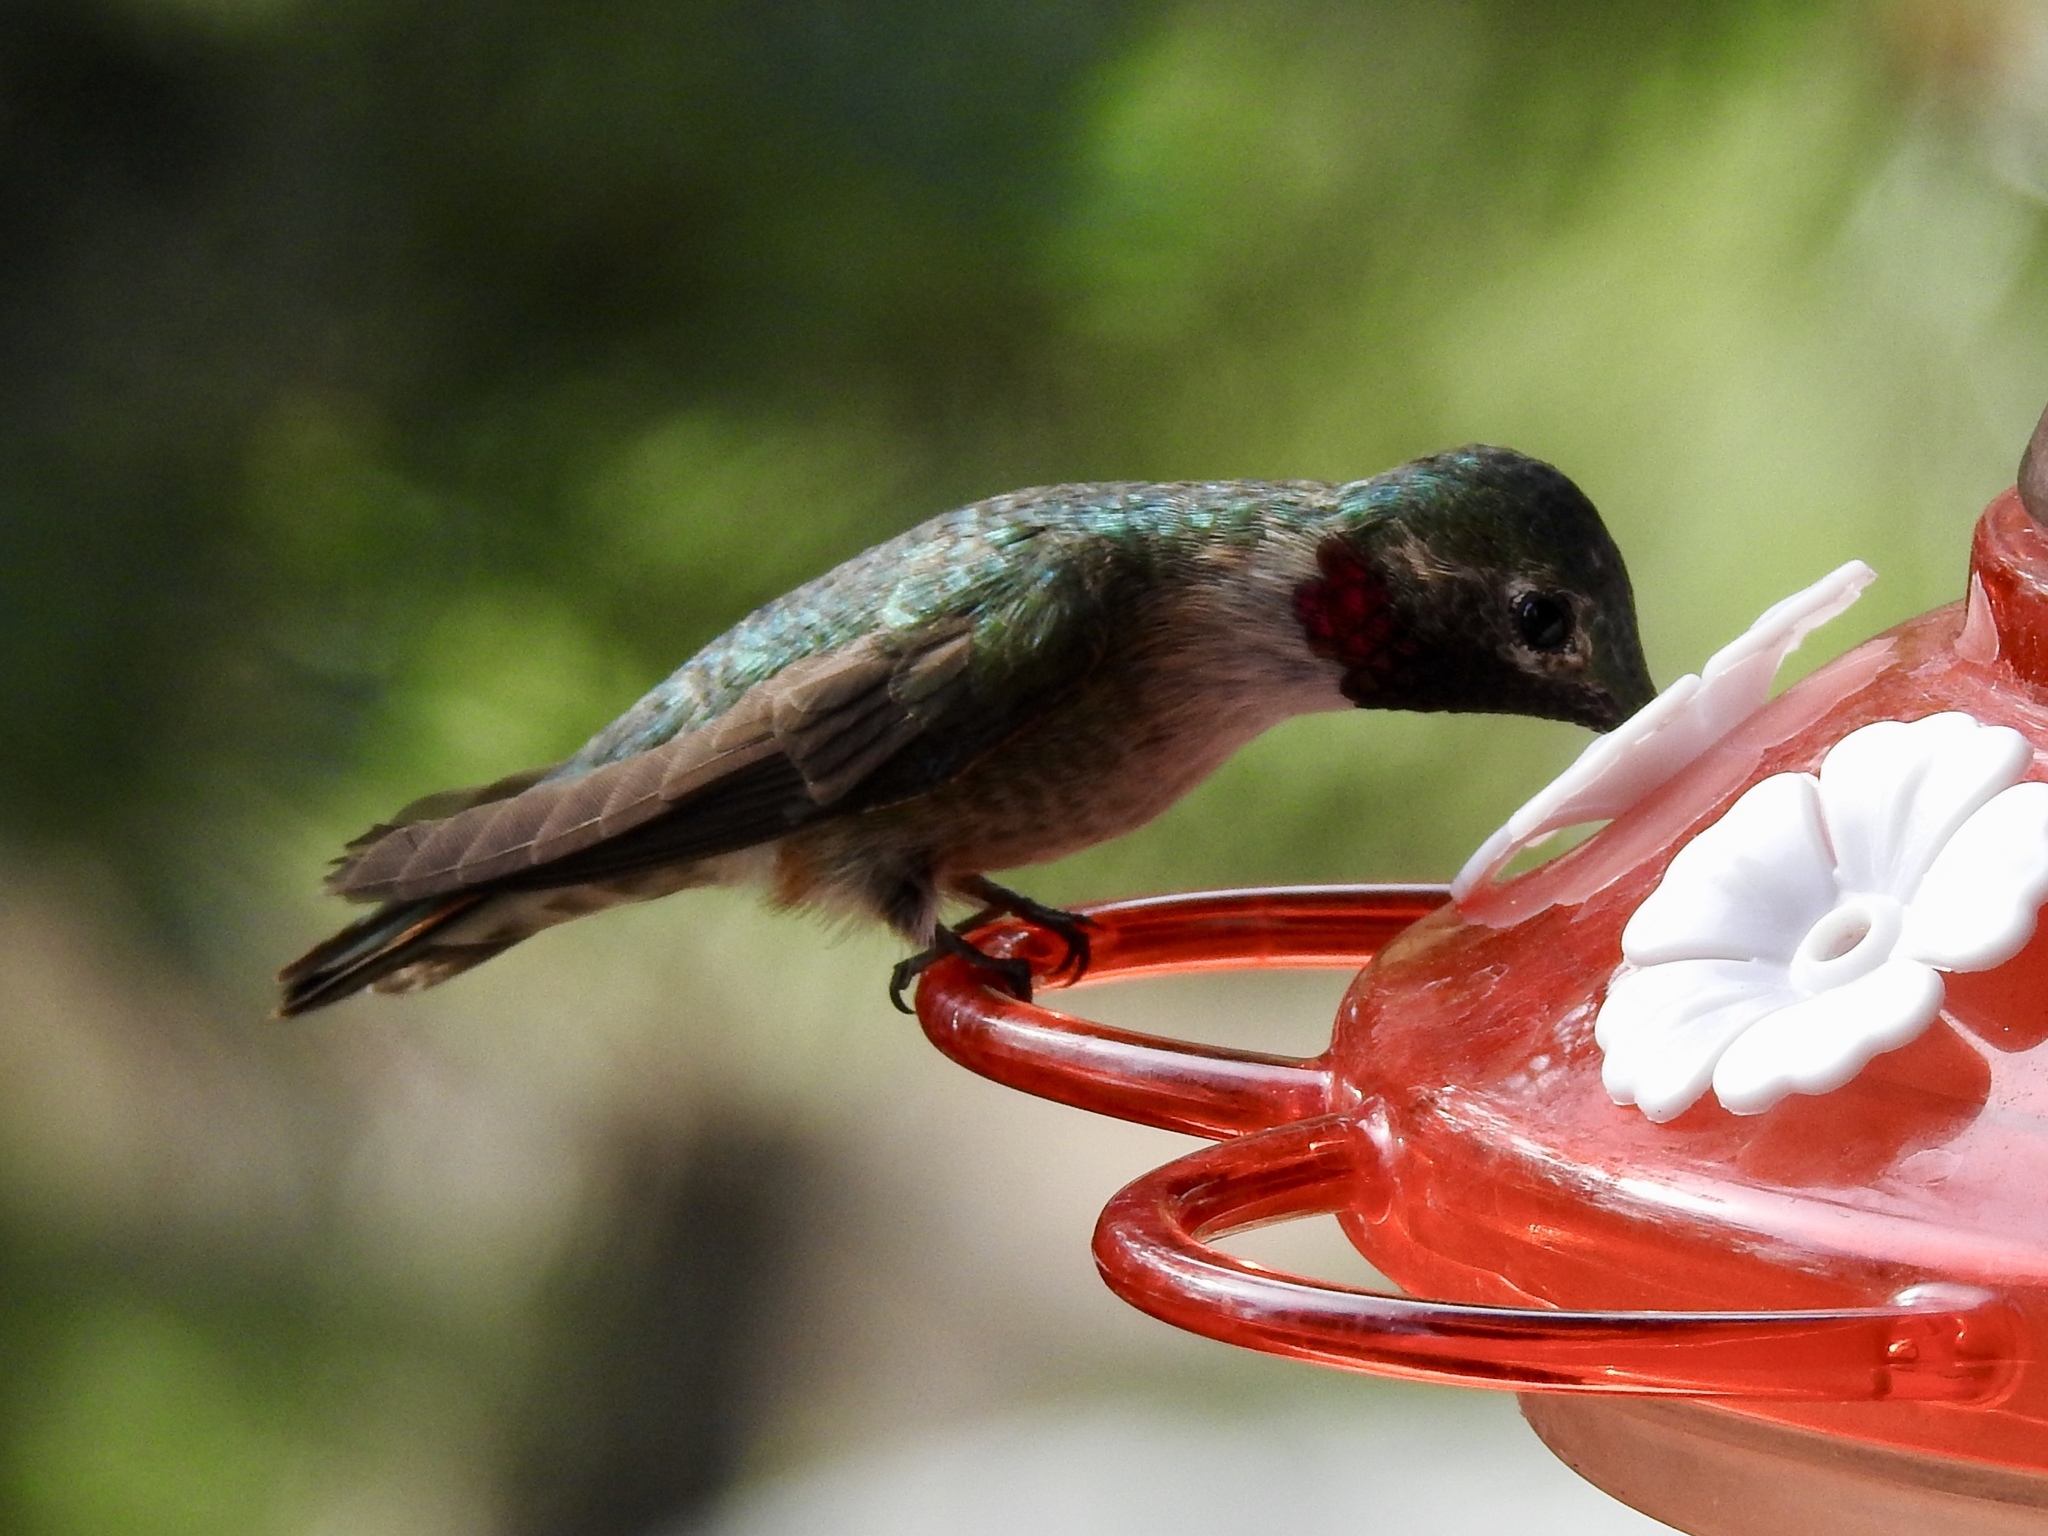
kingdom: Animalia
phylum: Chordata
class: Aves
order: Apodiformes
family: Trochilidae
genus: Selasphorus
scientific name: Selasphorus platycercus
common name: Broad-tailed hummingbird
